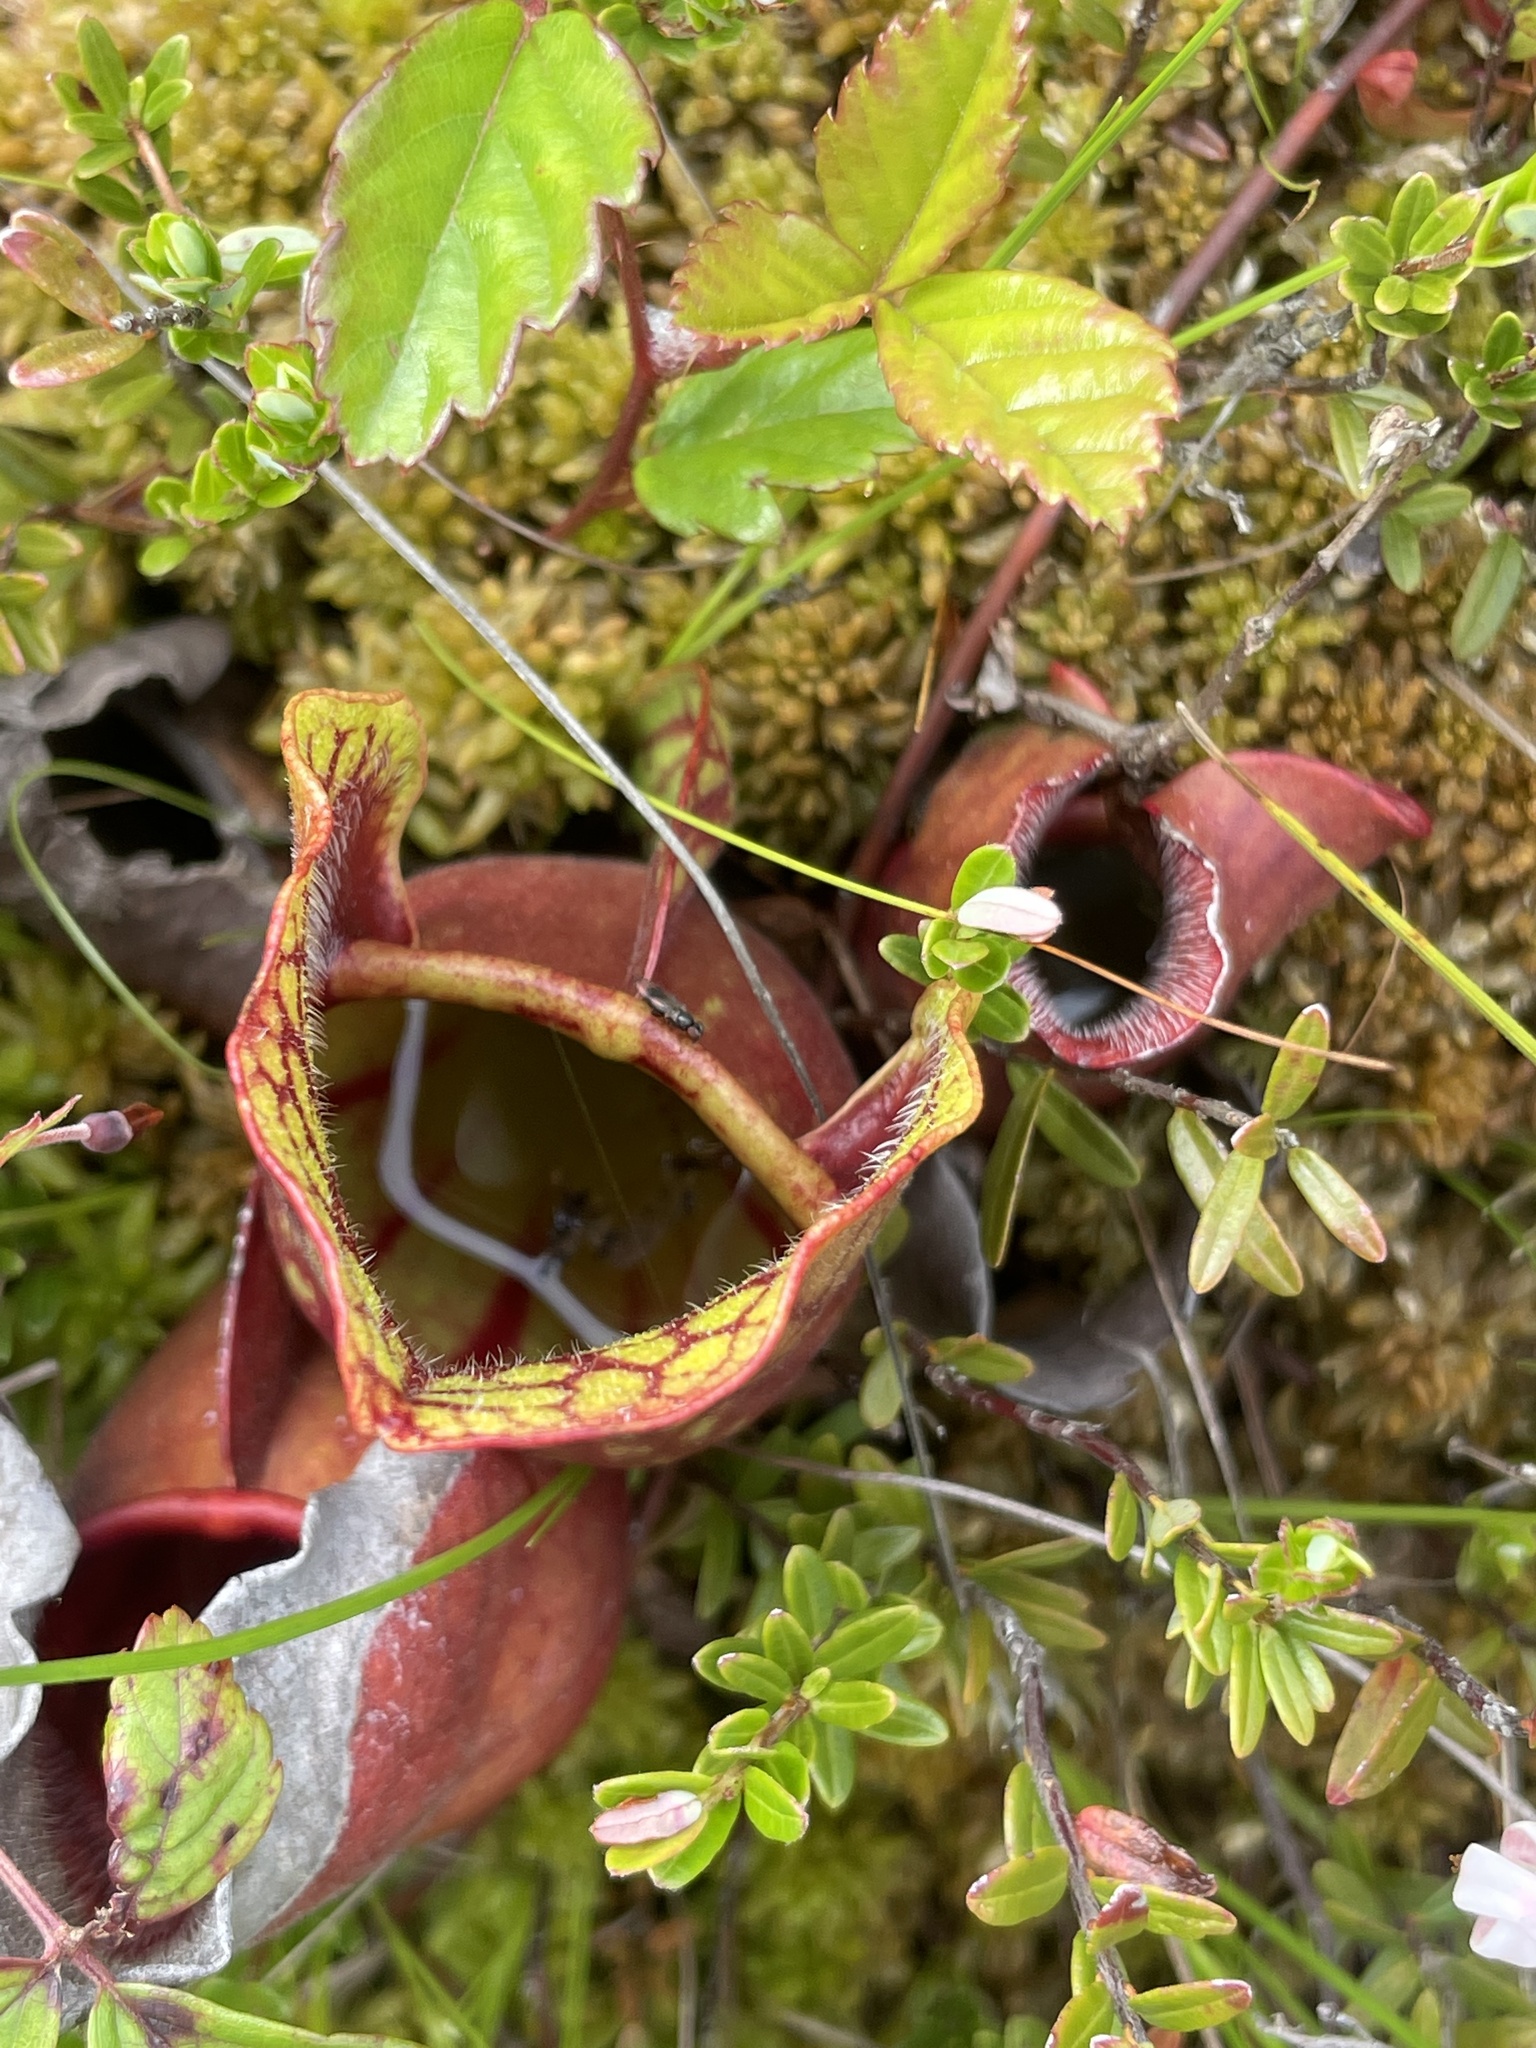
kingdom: Plantae
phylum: Tracheophyta
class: Magnoliopsida
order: Ericales
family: Sarraceniaceae
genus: Sarracenia
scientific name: Sarracenia purpurea
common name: Pitcherplant
